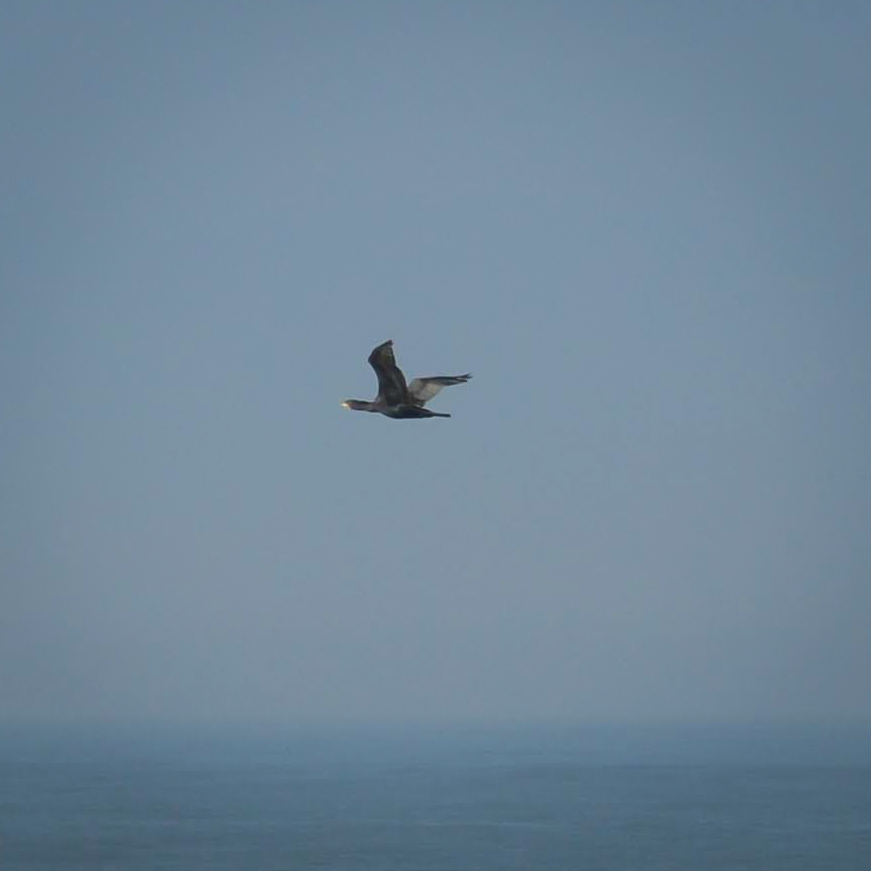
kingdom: Animalia
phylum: Chordata
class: Aves
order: Suliformes
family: Phalacrocoracidae
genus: Phalacrocorax
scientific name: Phalacrocorax carbo
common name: Great cormorant
